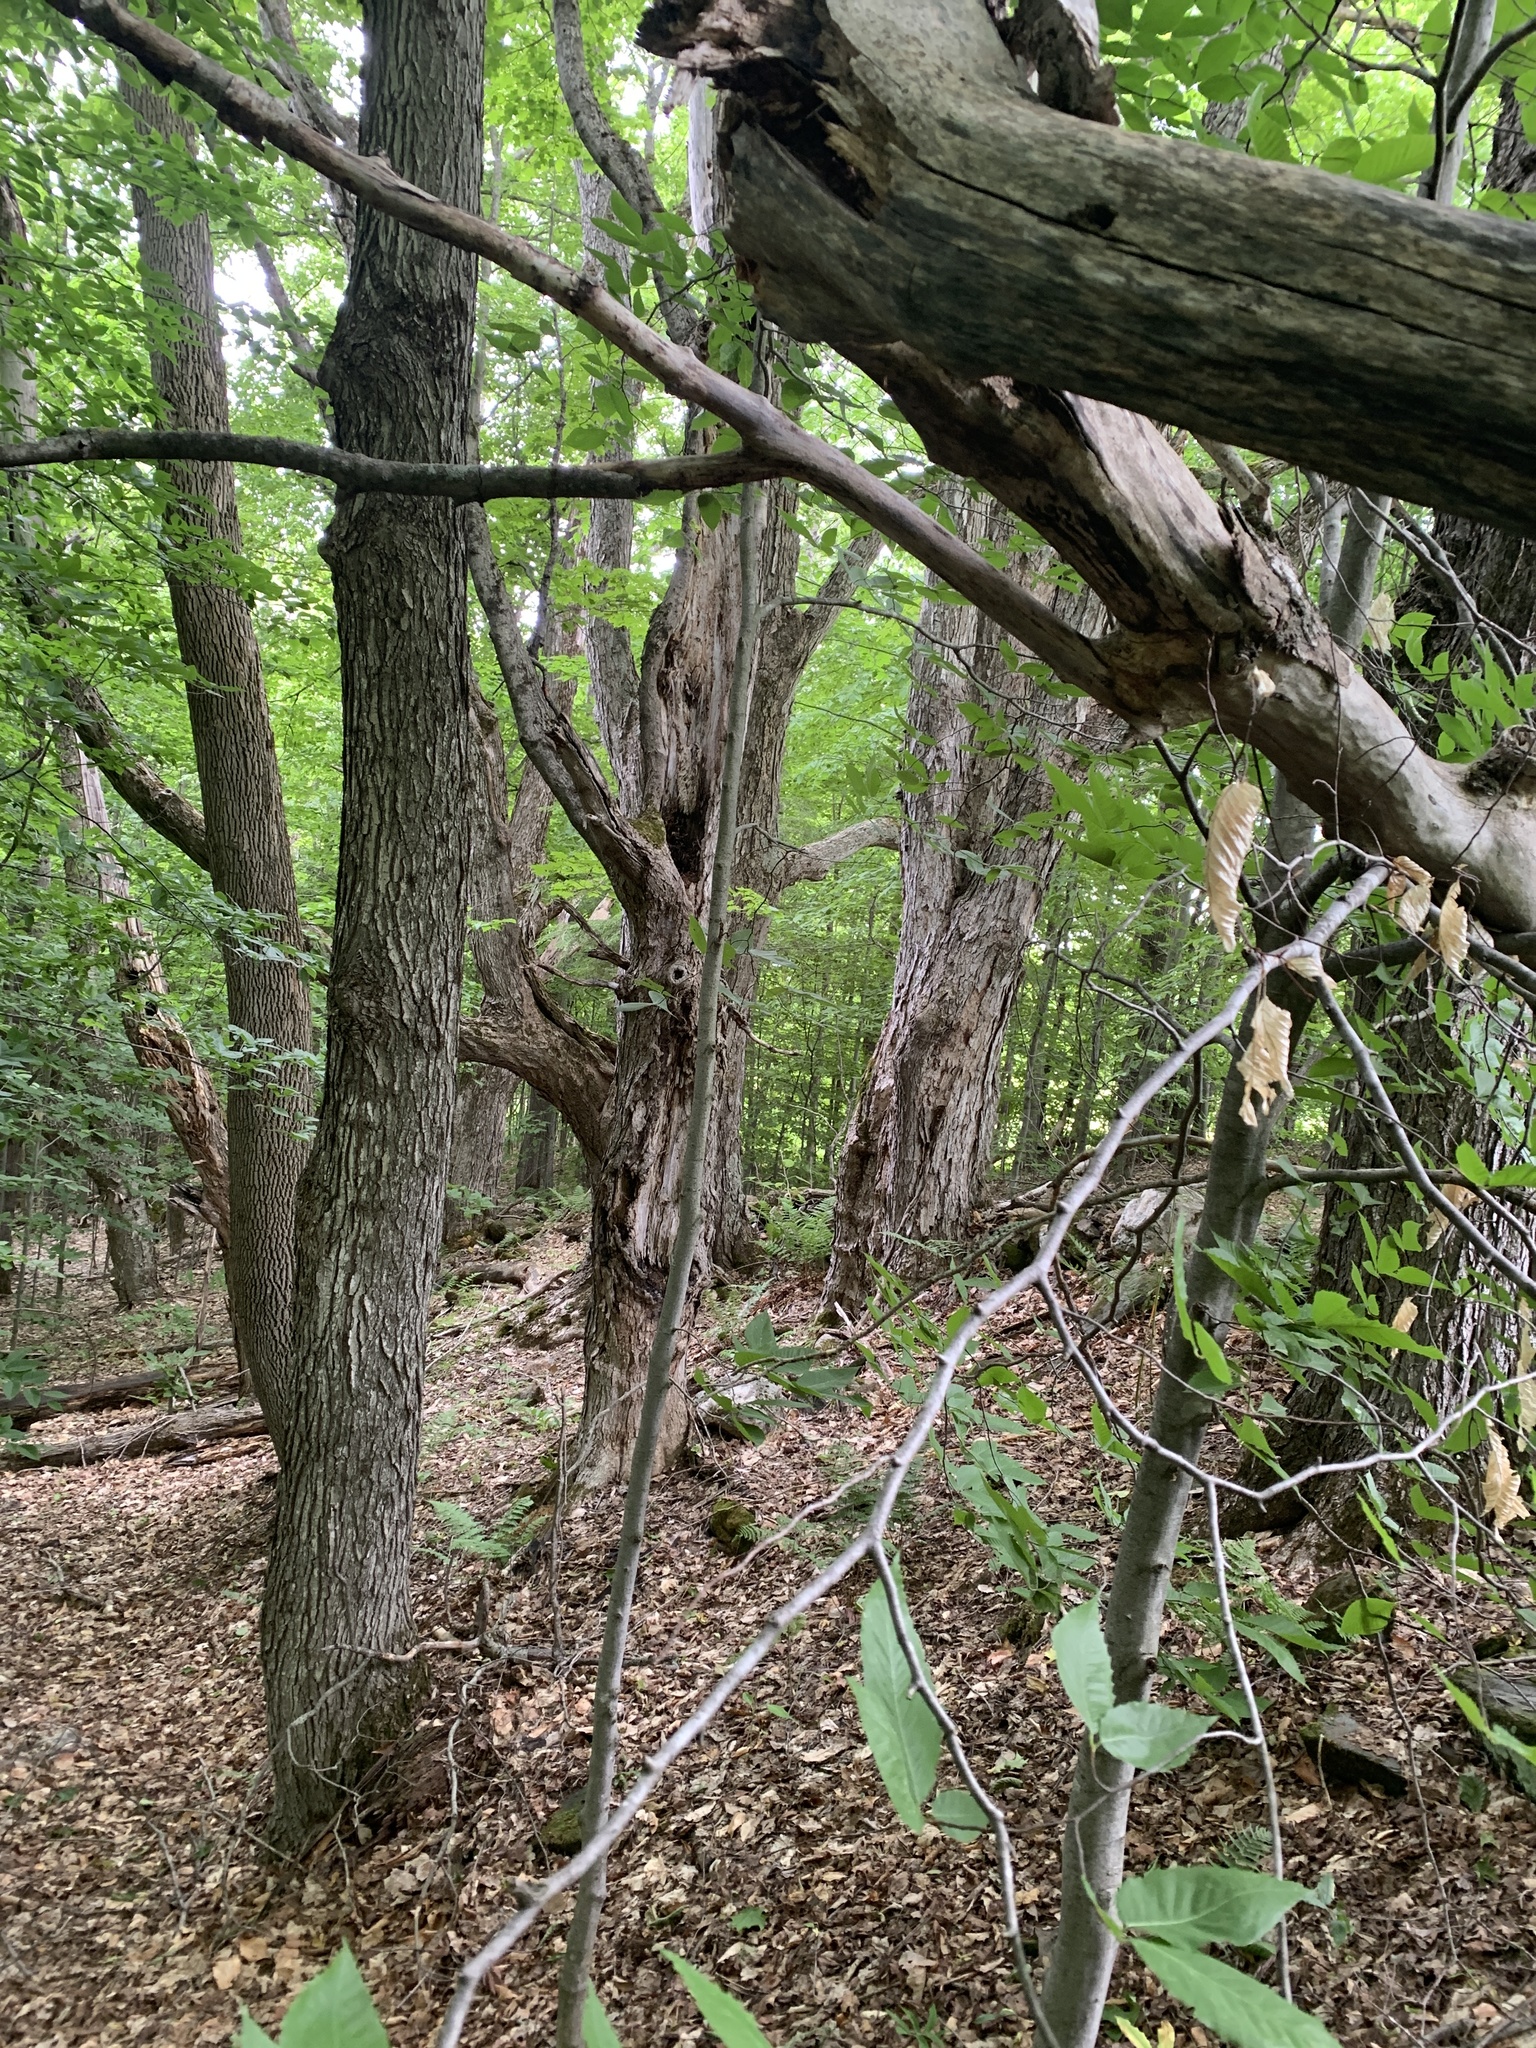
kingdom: Plantae
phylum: Tracheophyta
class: Magnoliopsida
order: Sapindales
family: Sapindaceae
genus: Acer
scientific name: Acer saccharum
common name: Sugar maple
